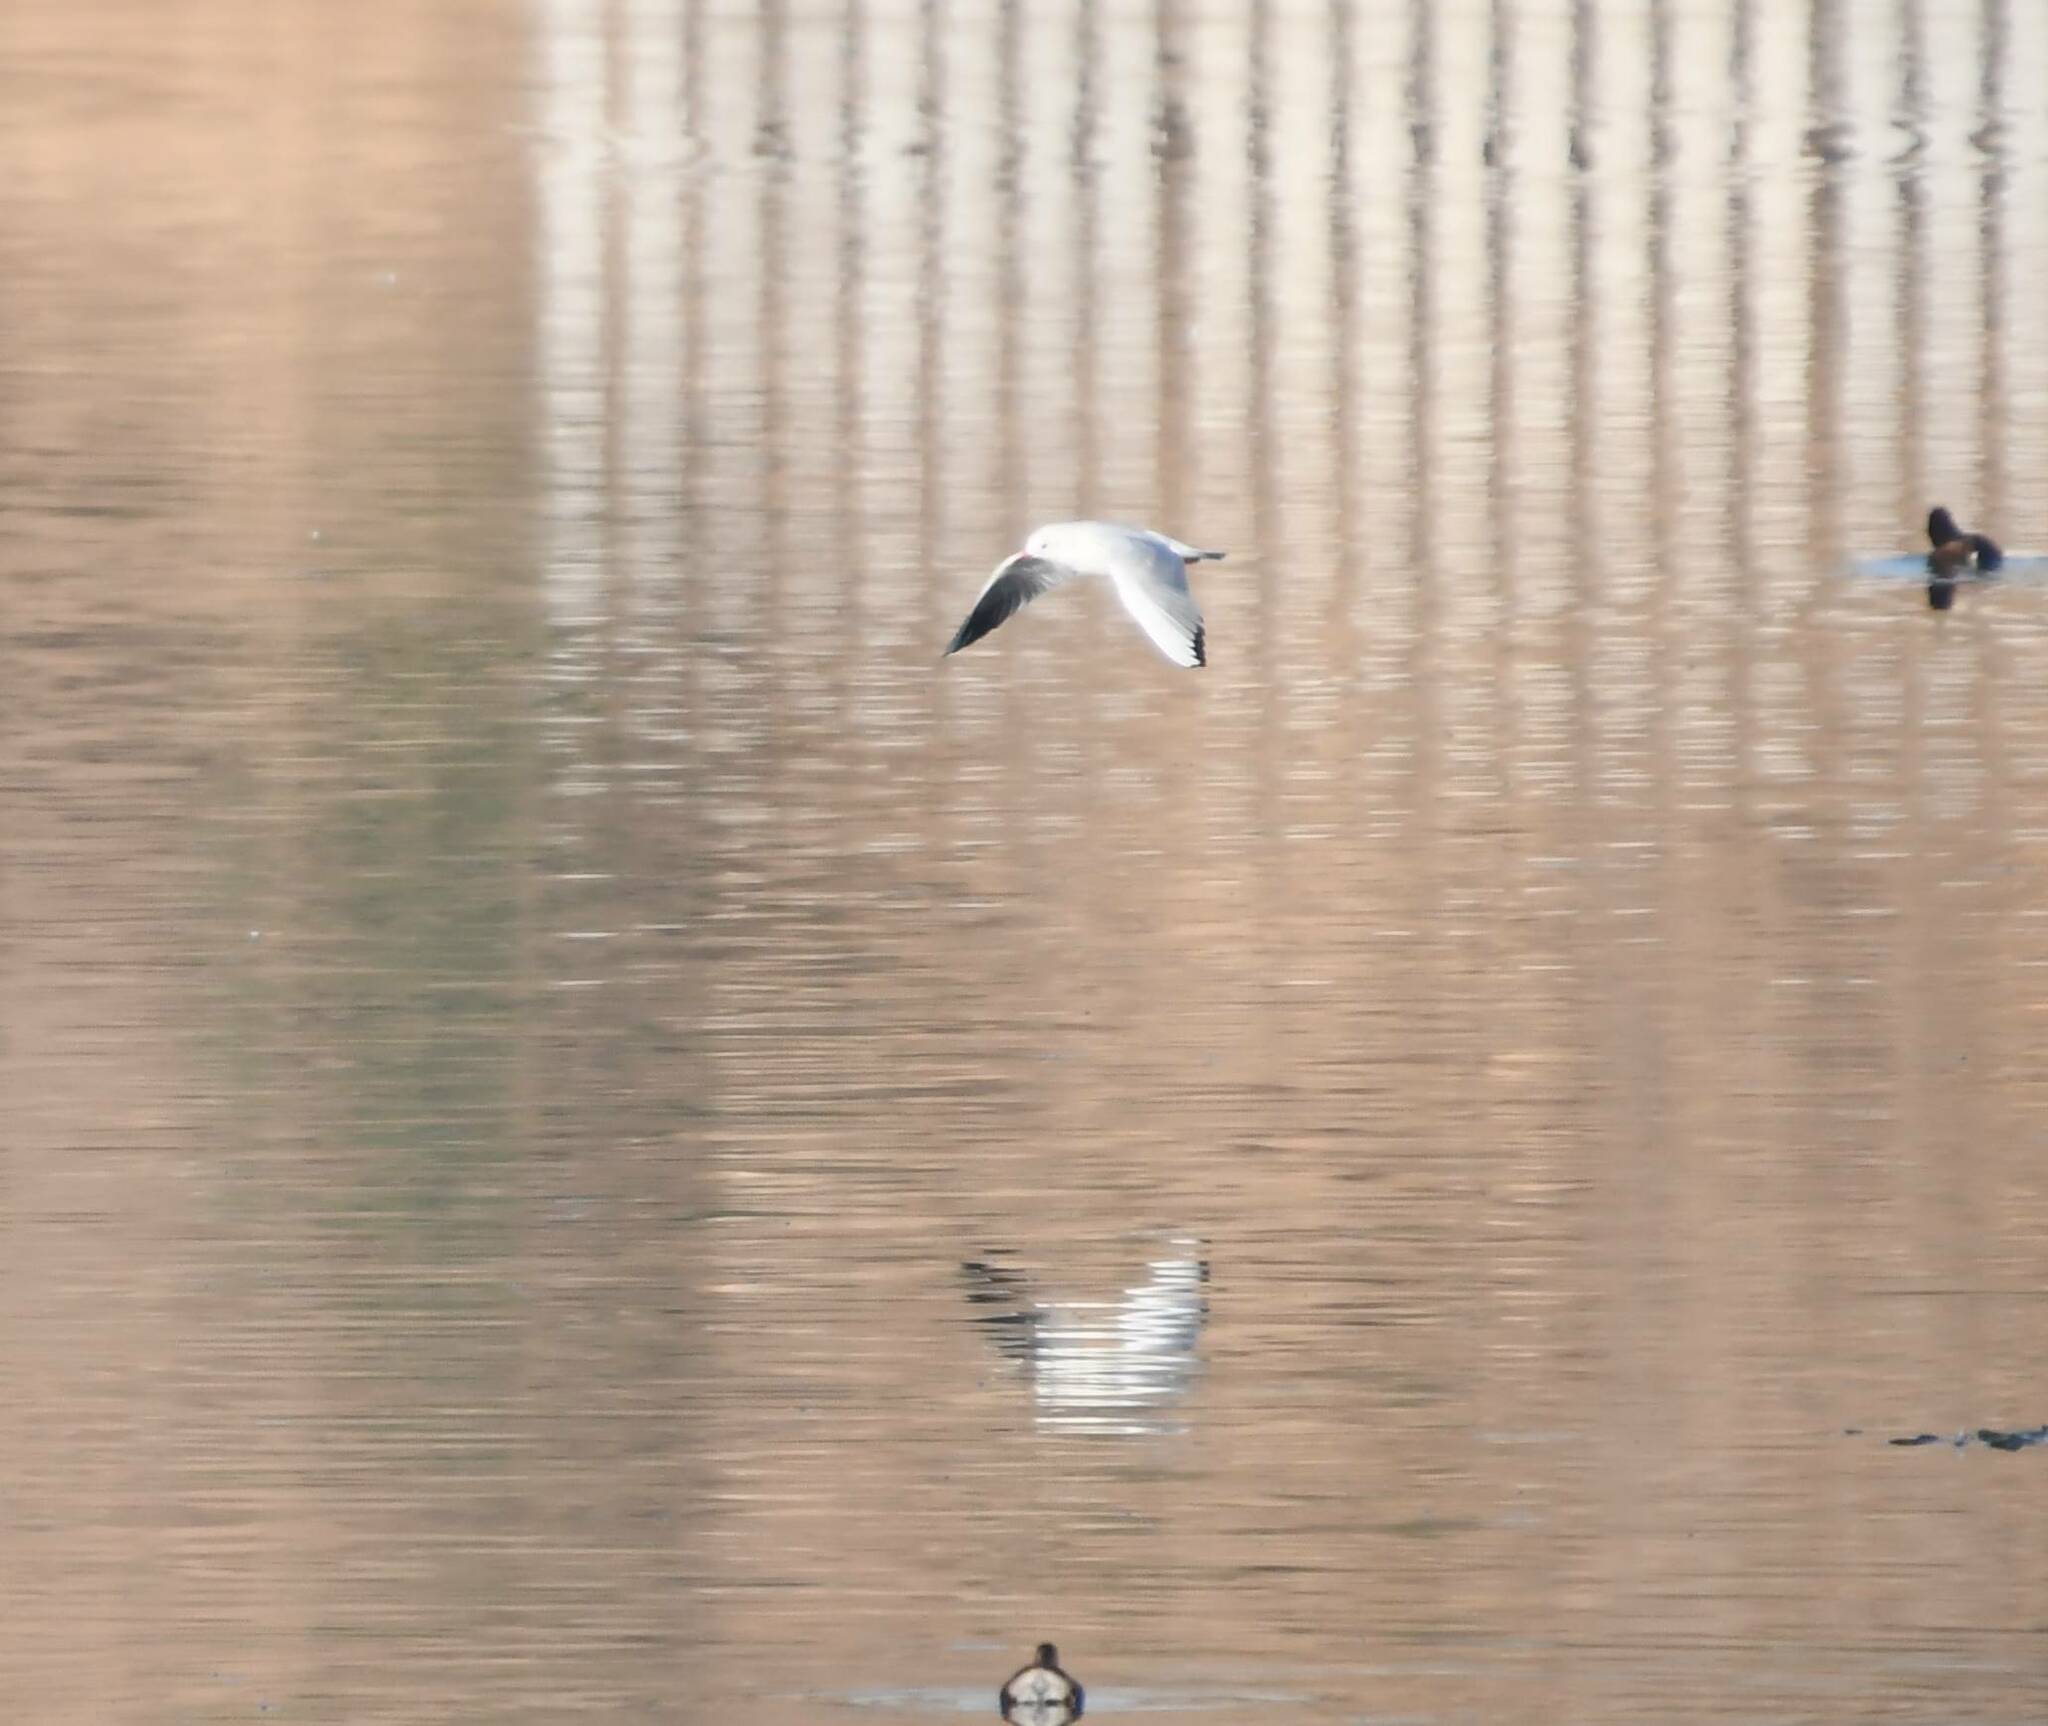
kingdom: Animalia
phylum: Chordata
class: Aves
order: Charadriiformes
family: Laridae
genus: Chroicocephalus
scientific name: Chroicocephalus ridibundus
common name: Black-headed gull
